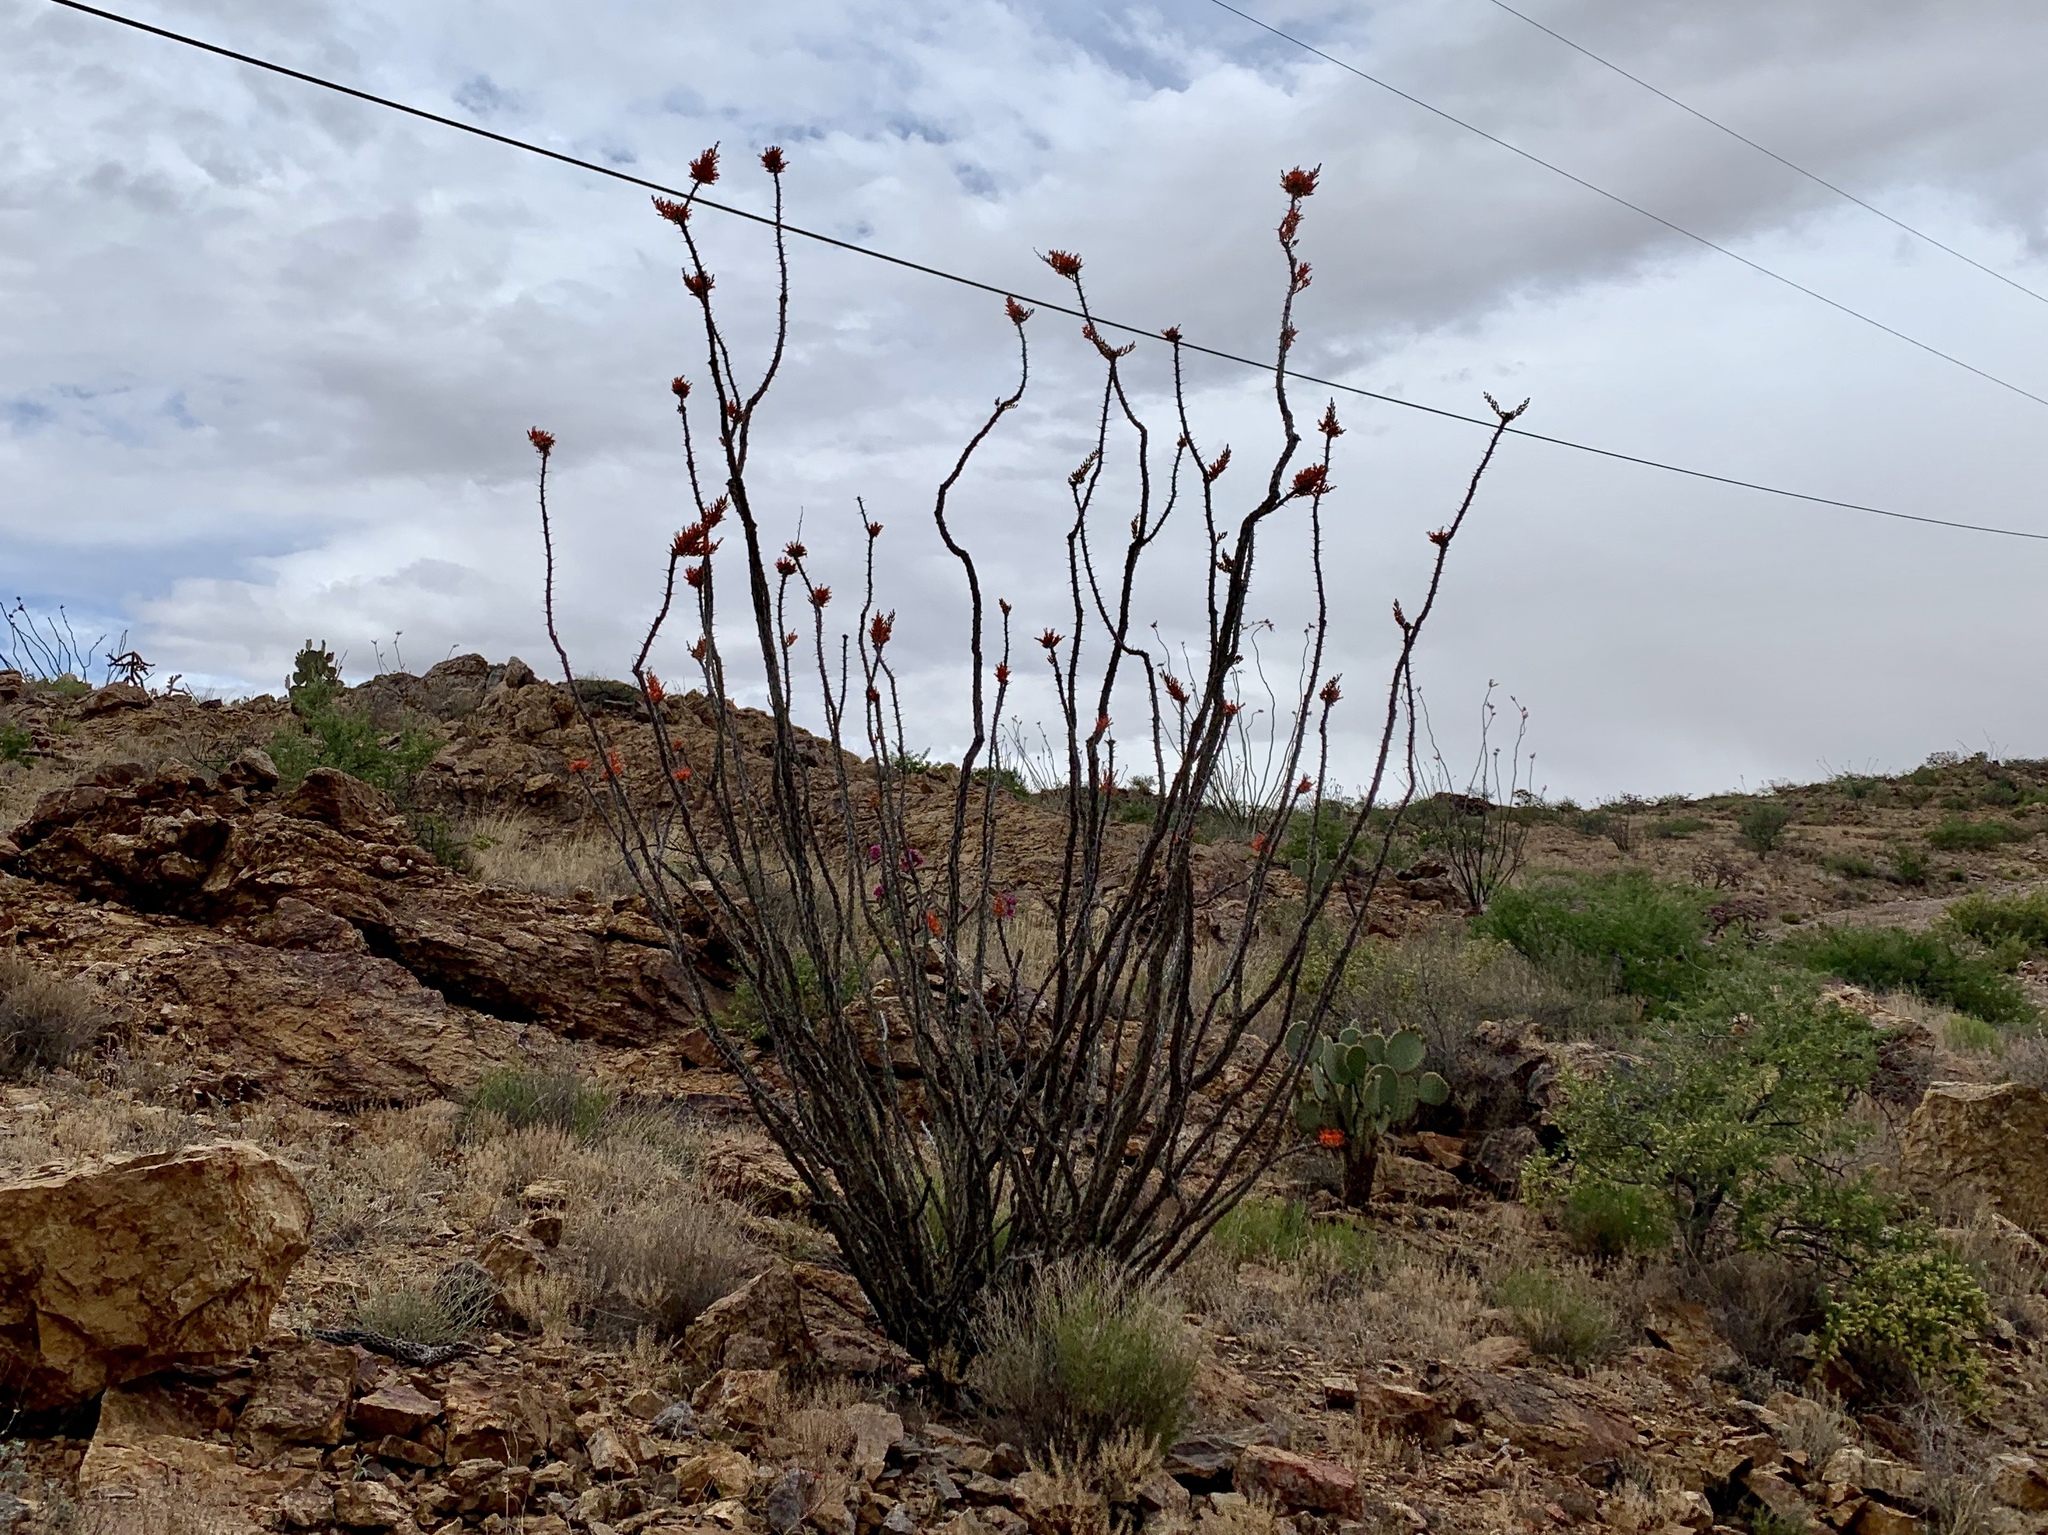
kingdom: Plantae
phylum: Tracheophyta
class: Magnoliopsida
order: Ericales
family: Fouquieriaceae
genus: Fouquieria
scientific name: Fouquieria splendens
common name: Vine-cactus
